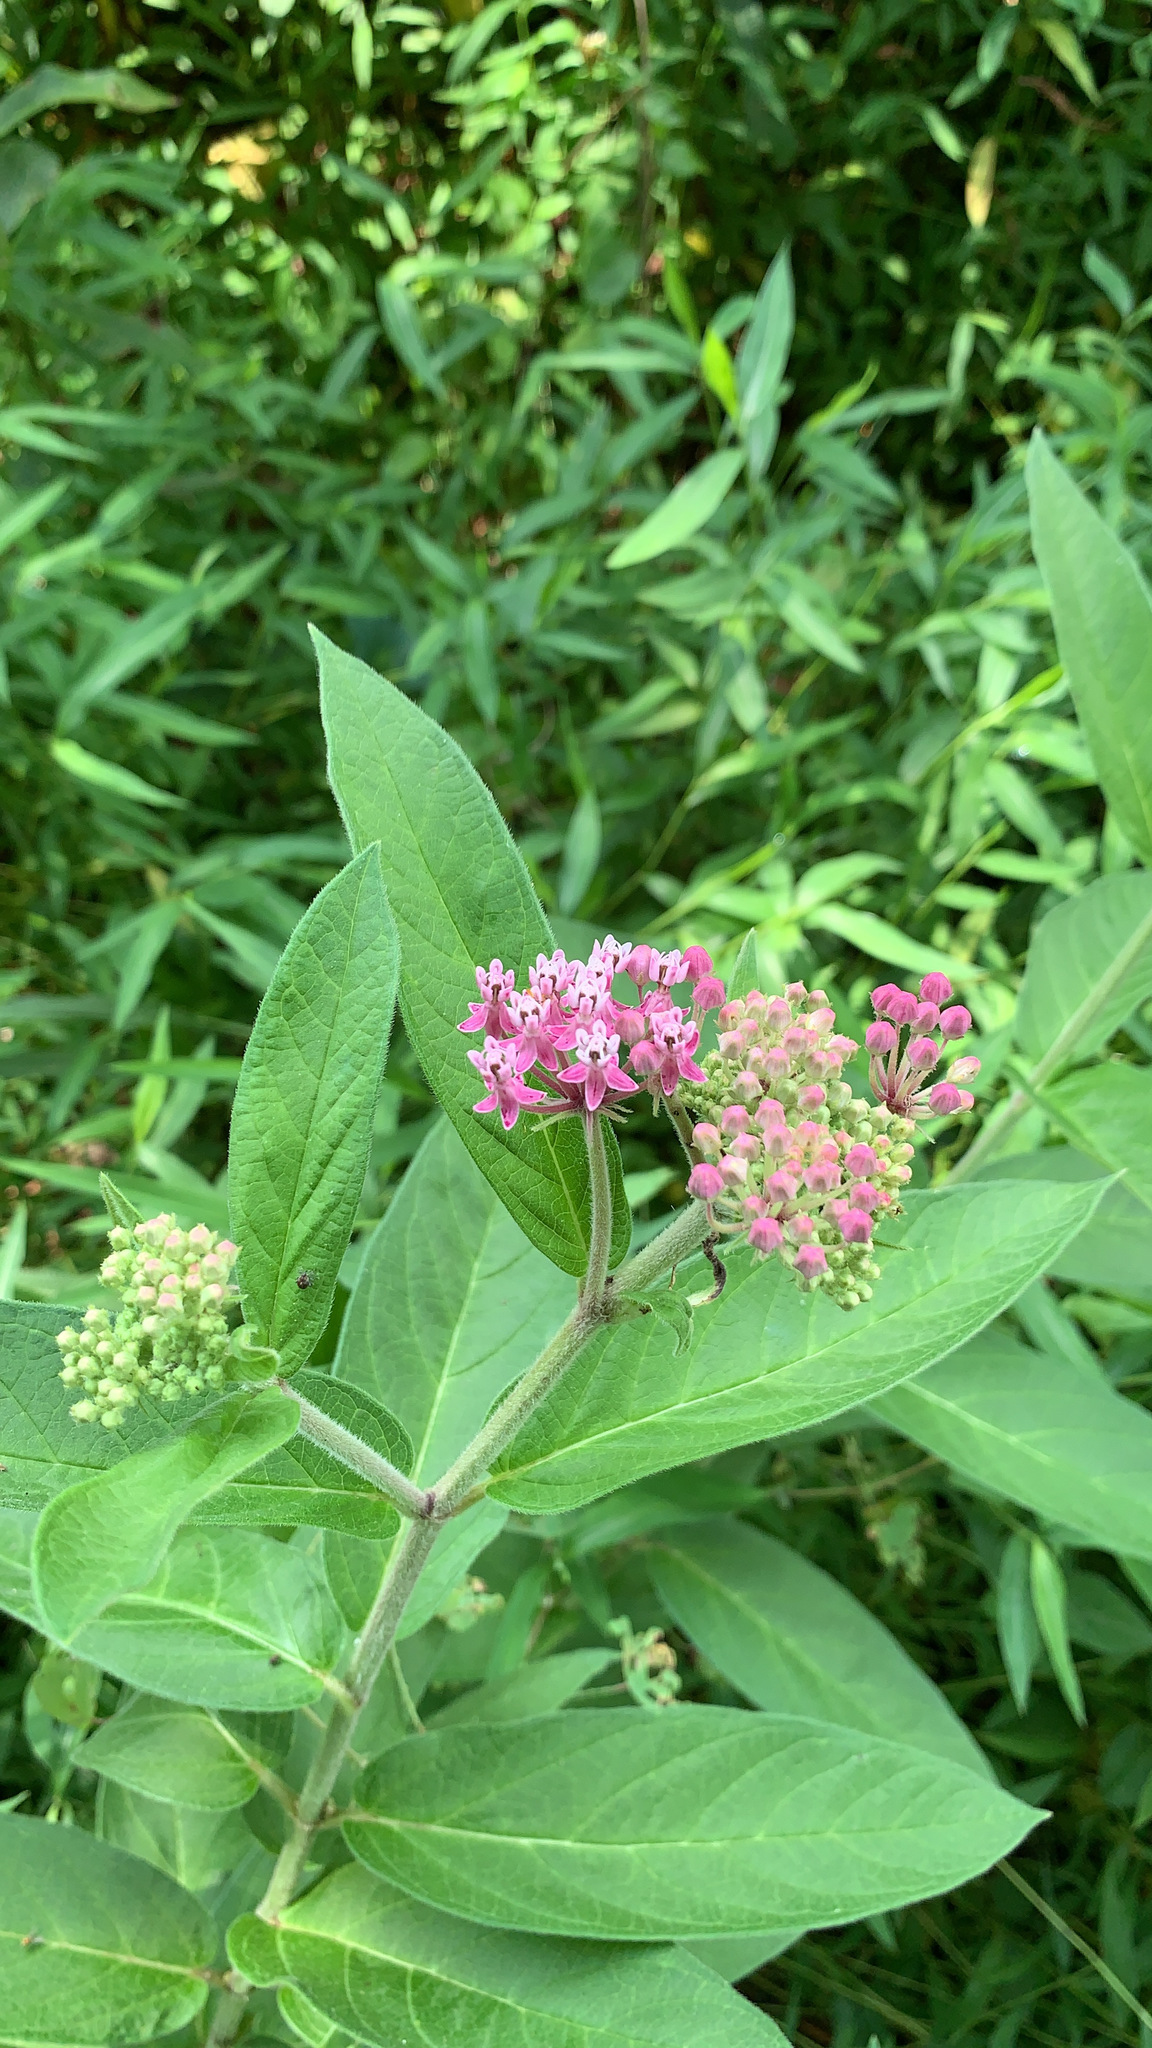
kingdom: Plantae
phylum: Tracheophyta
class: Magnoliopsida
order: Gentianales
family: Apocynaceae
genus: Asclepias
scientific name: Asclepias incarnata
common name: Swamp milkweed
